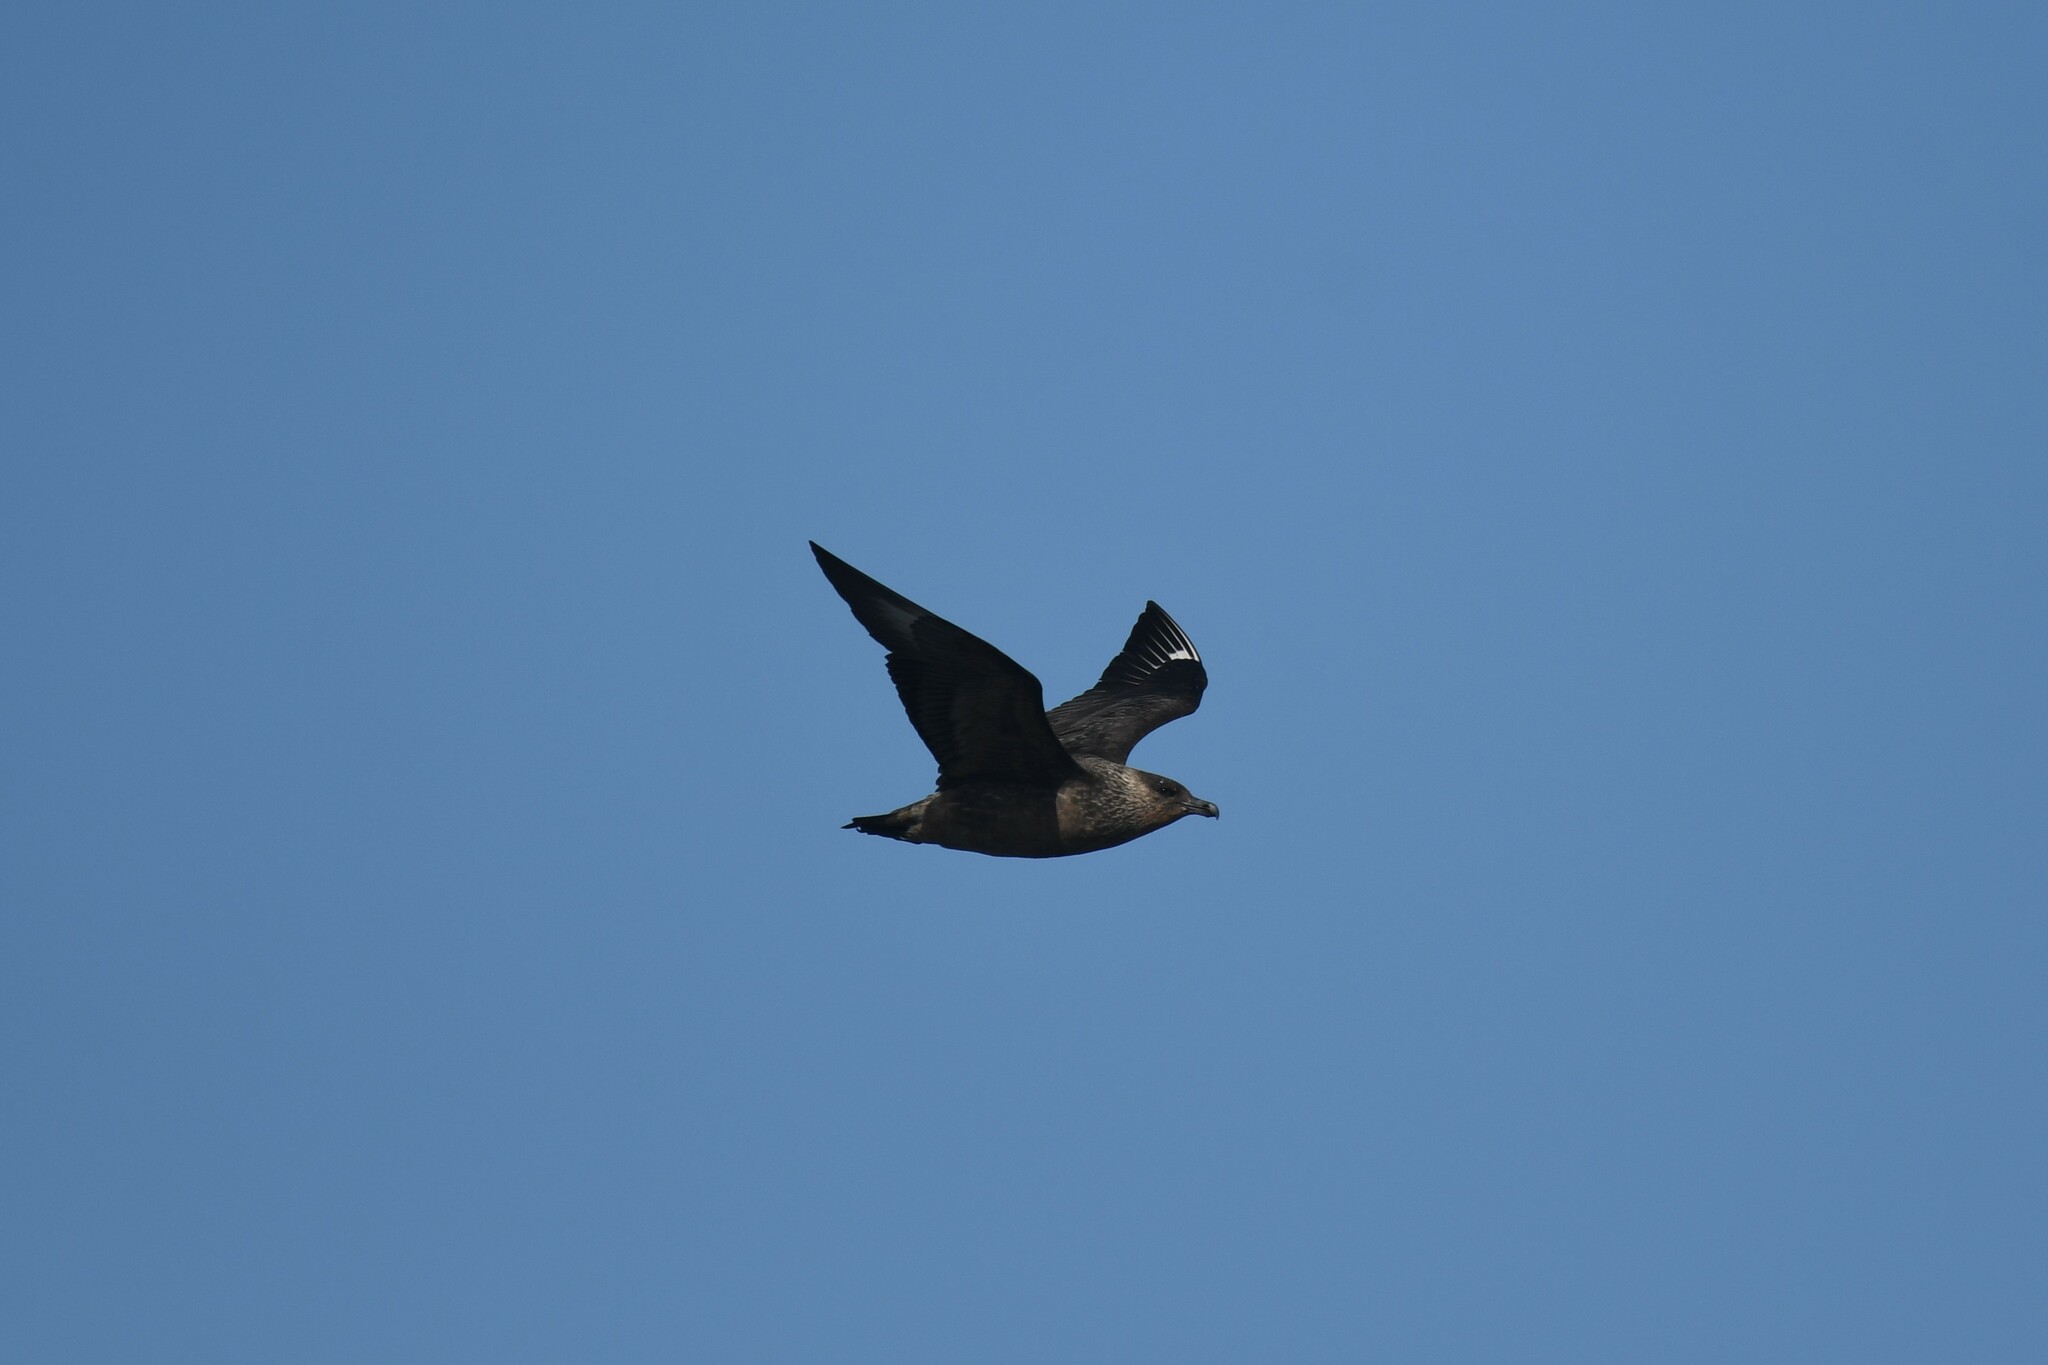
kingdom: Animalia
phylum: Chordata
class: Aves
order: Charadriiformes
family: Stercorariidae
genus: Stercorarius
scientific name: Stercorarius chilensis
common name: Chilean skua
